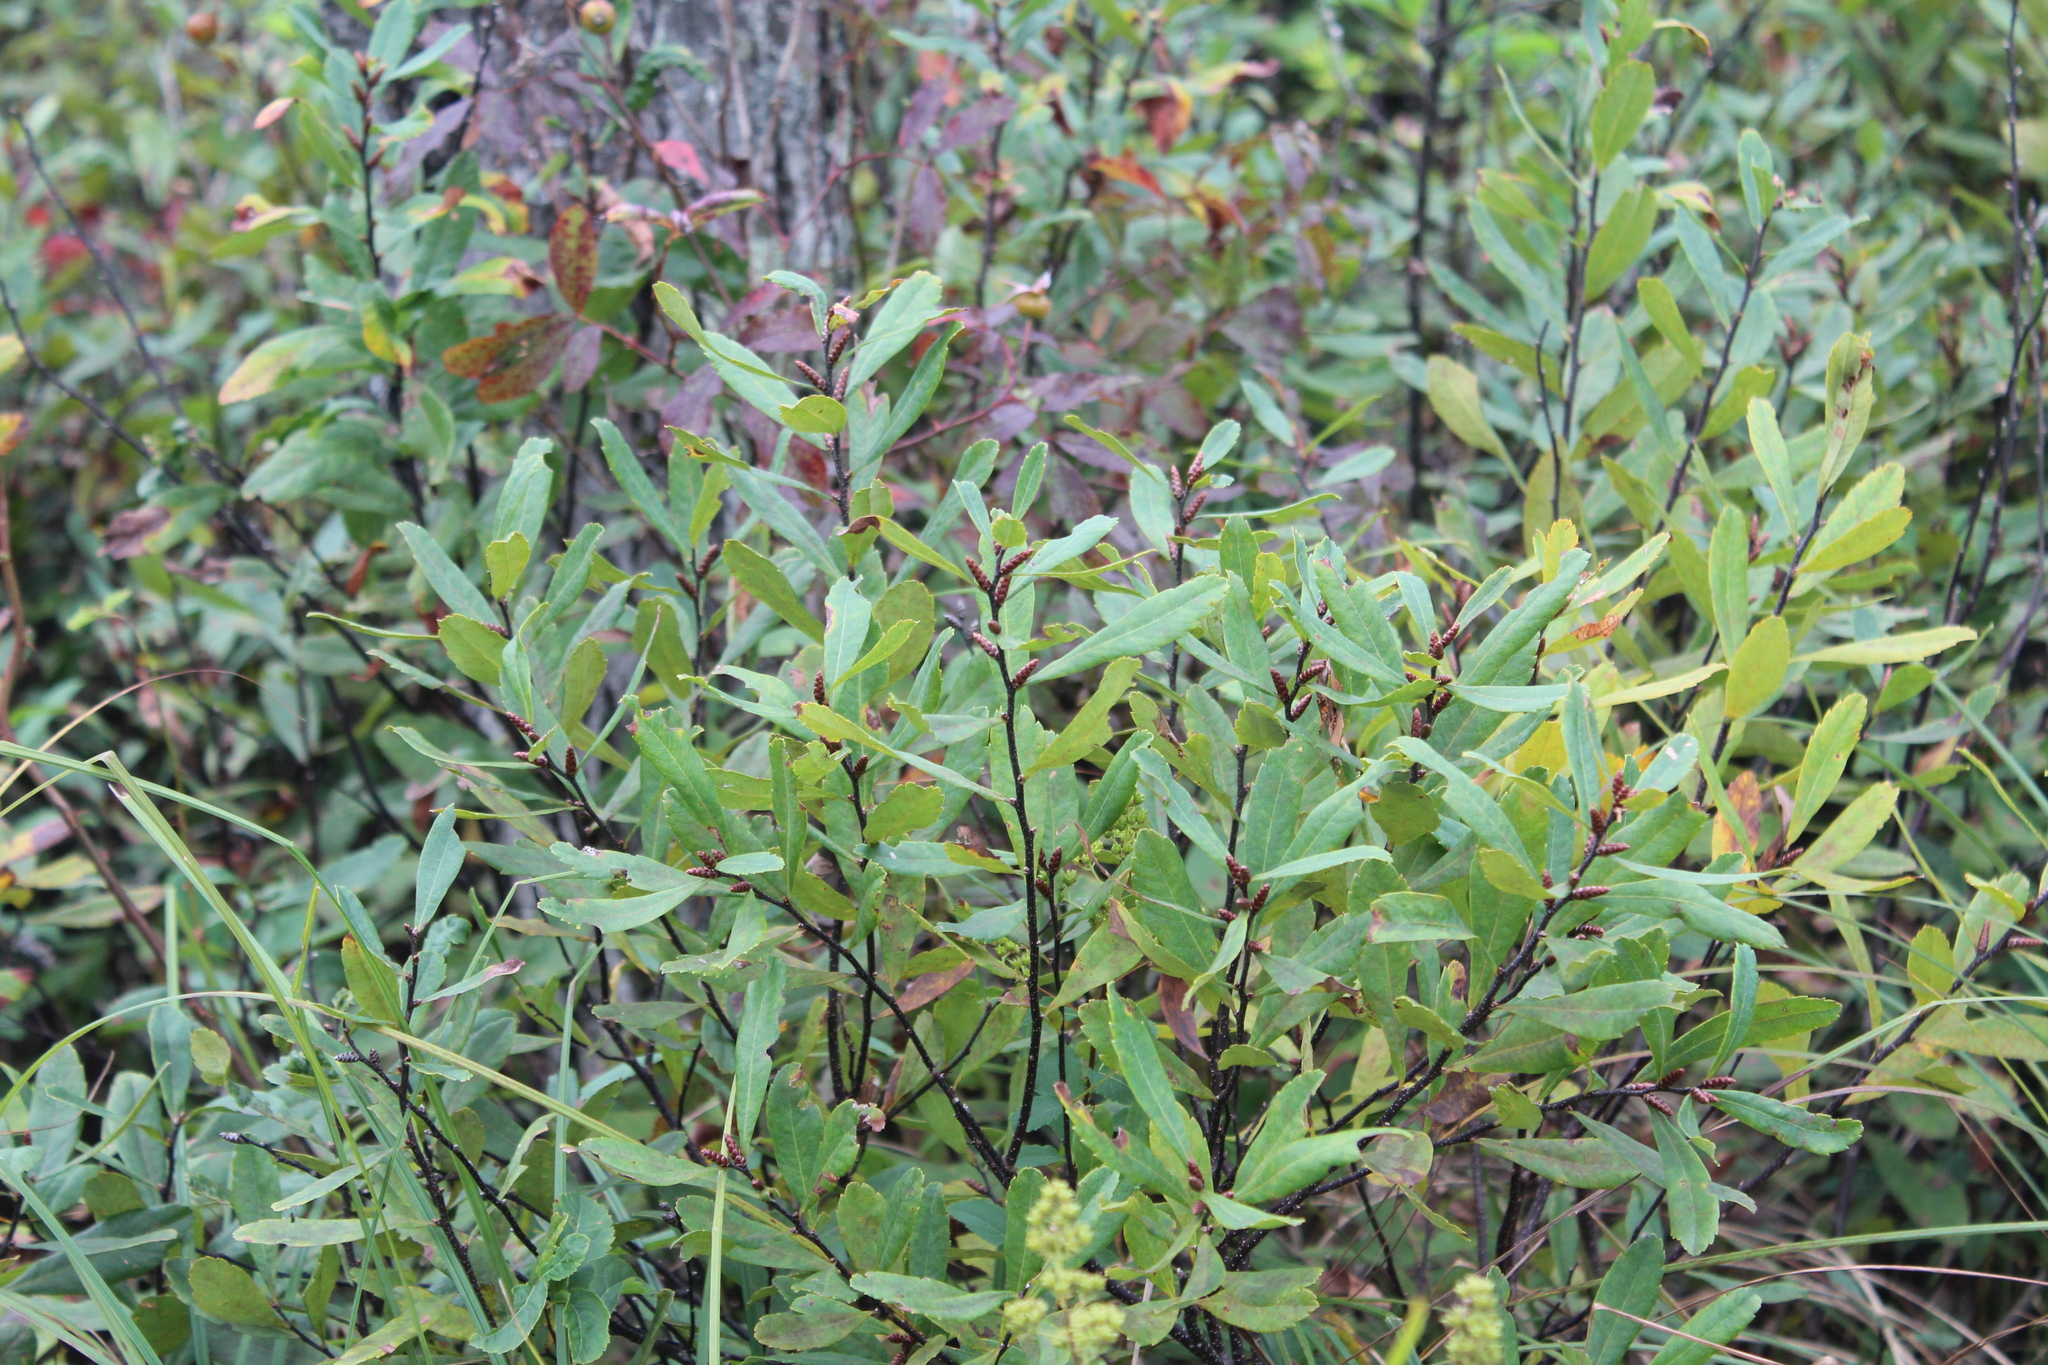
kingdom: Plantae
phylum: Tracheophyta
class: Magnoliopsida
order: Fagales
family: Myricaceae
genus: Myrica
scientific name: Myrica gale
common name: Sweet gale
